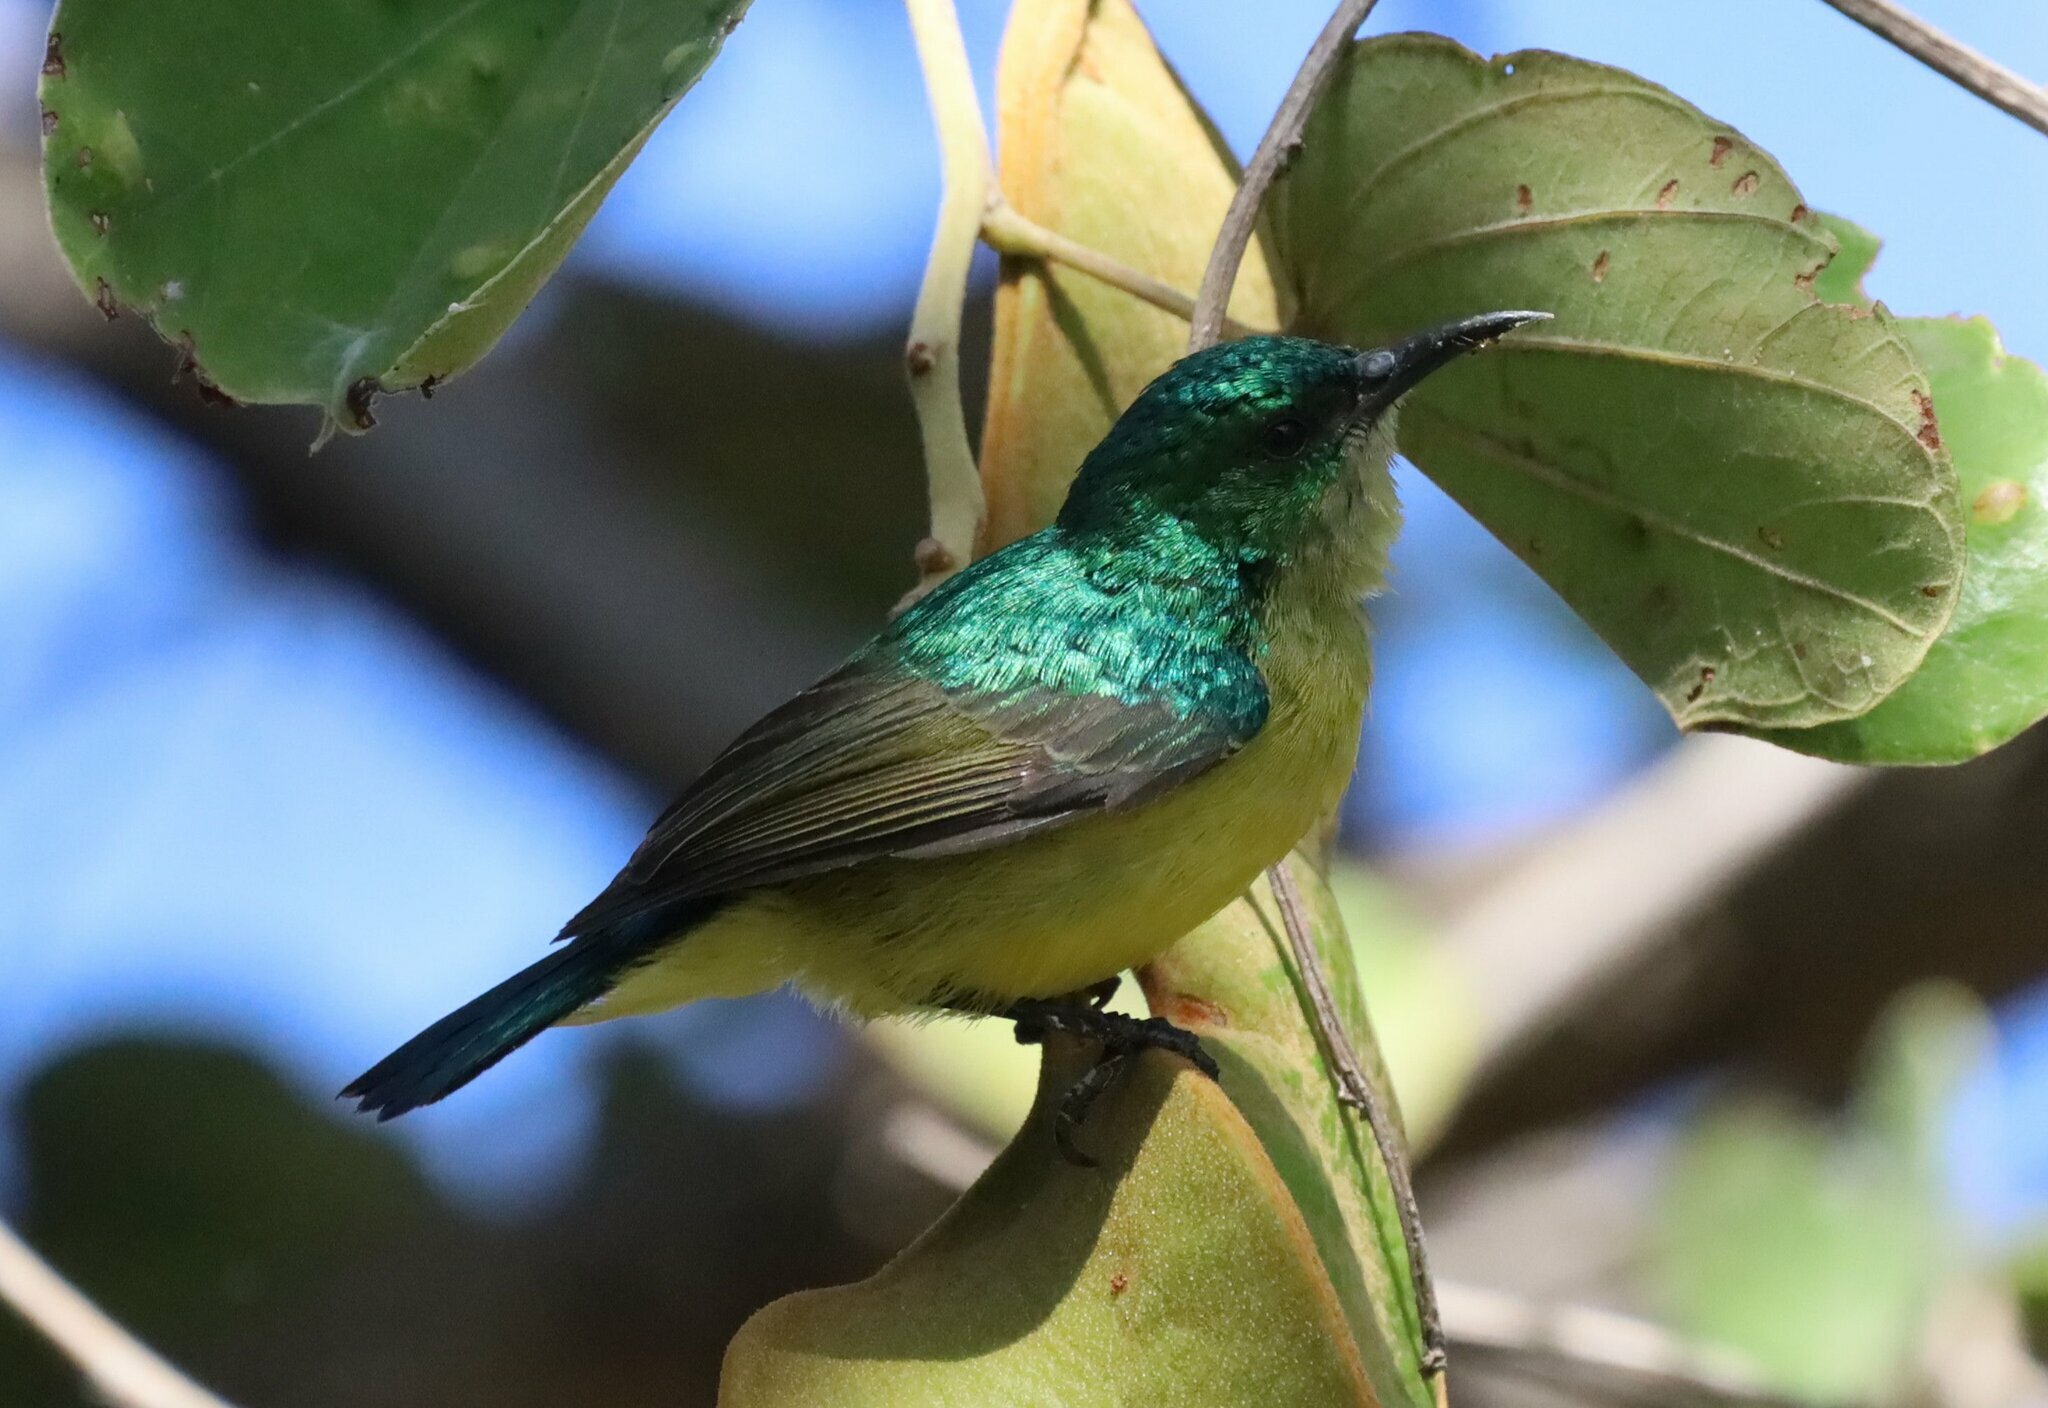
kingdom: Animalia
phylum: Chordata
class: Aves
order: Passeriformes
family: Nectariniidae
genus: Hedydipna
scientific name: Hedydipna collaris
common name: Collared sunbird
